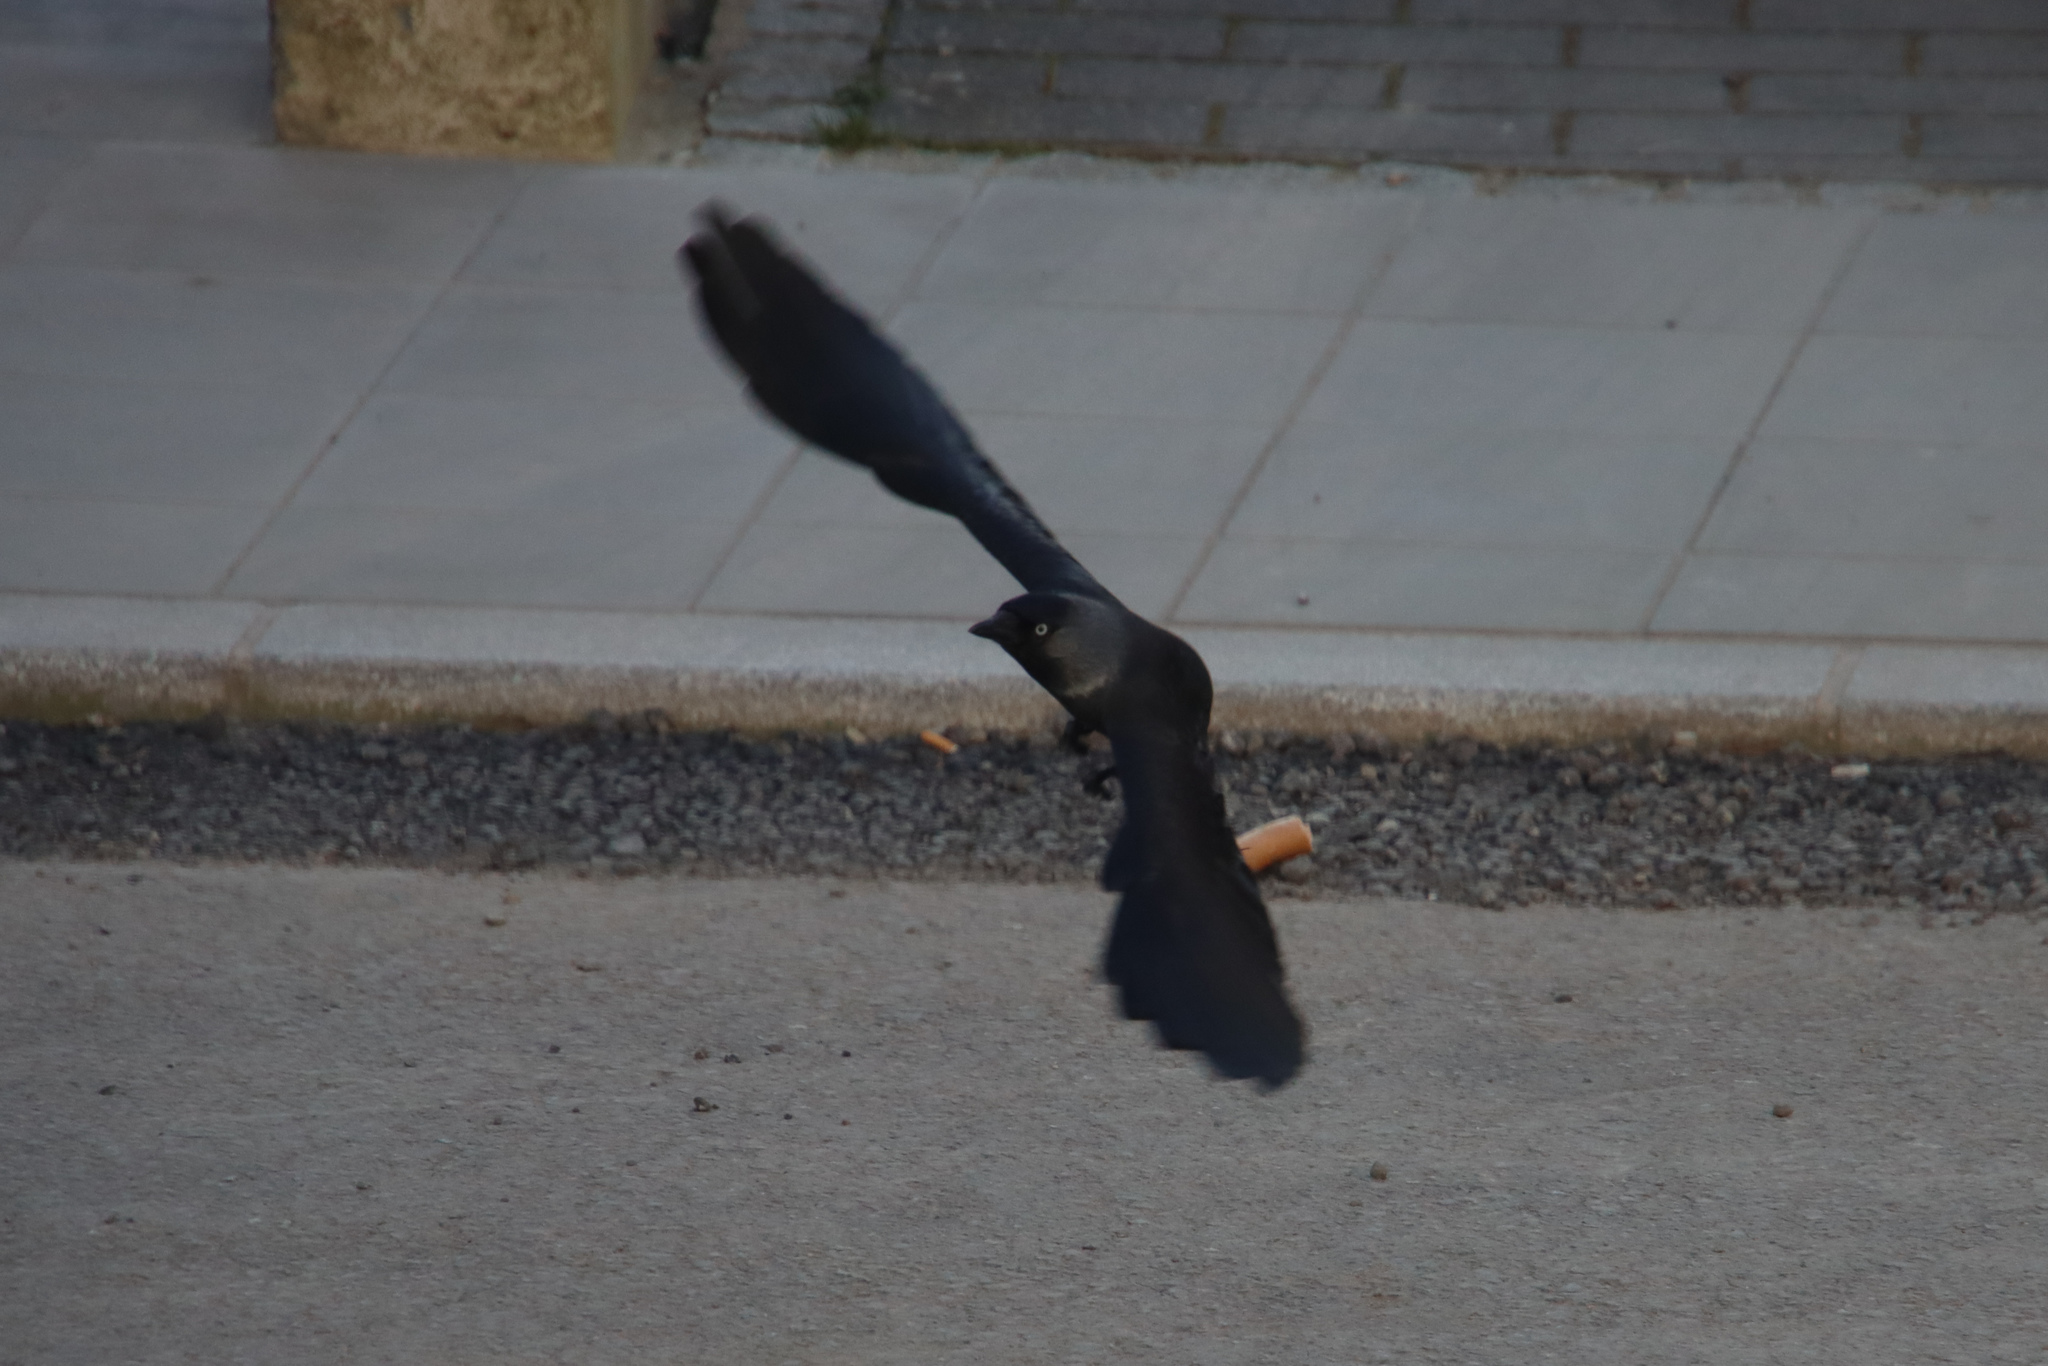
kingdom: Animalia
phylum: Chordata
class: Aves
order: Passeriformes
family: Corvidae
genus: Coloeus
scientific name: Coloeus monedula
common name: Western jackdaw
